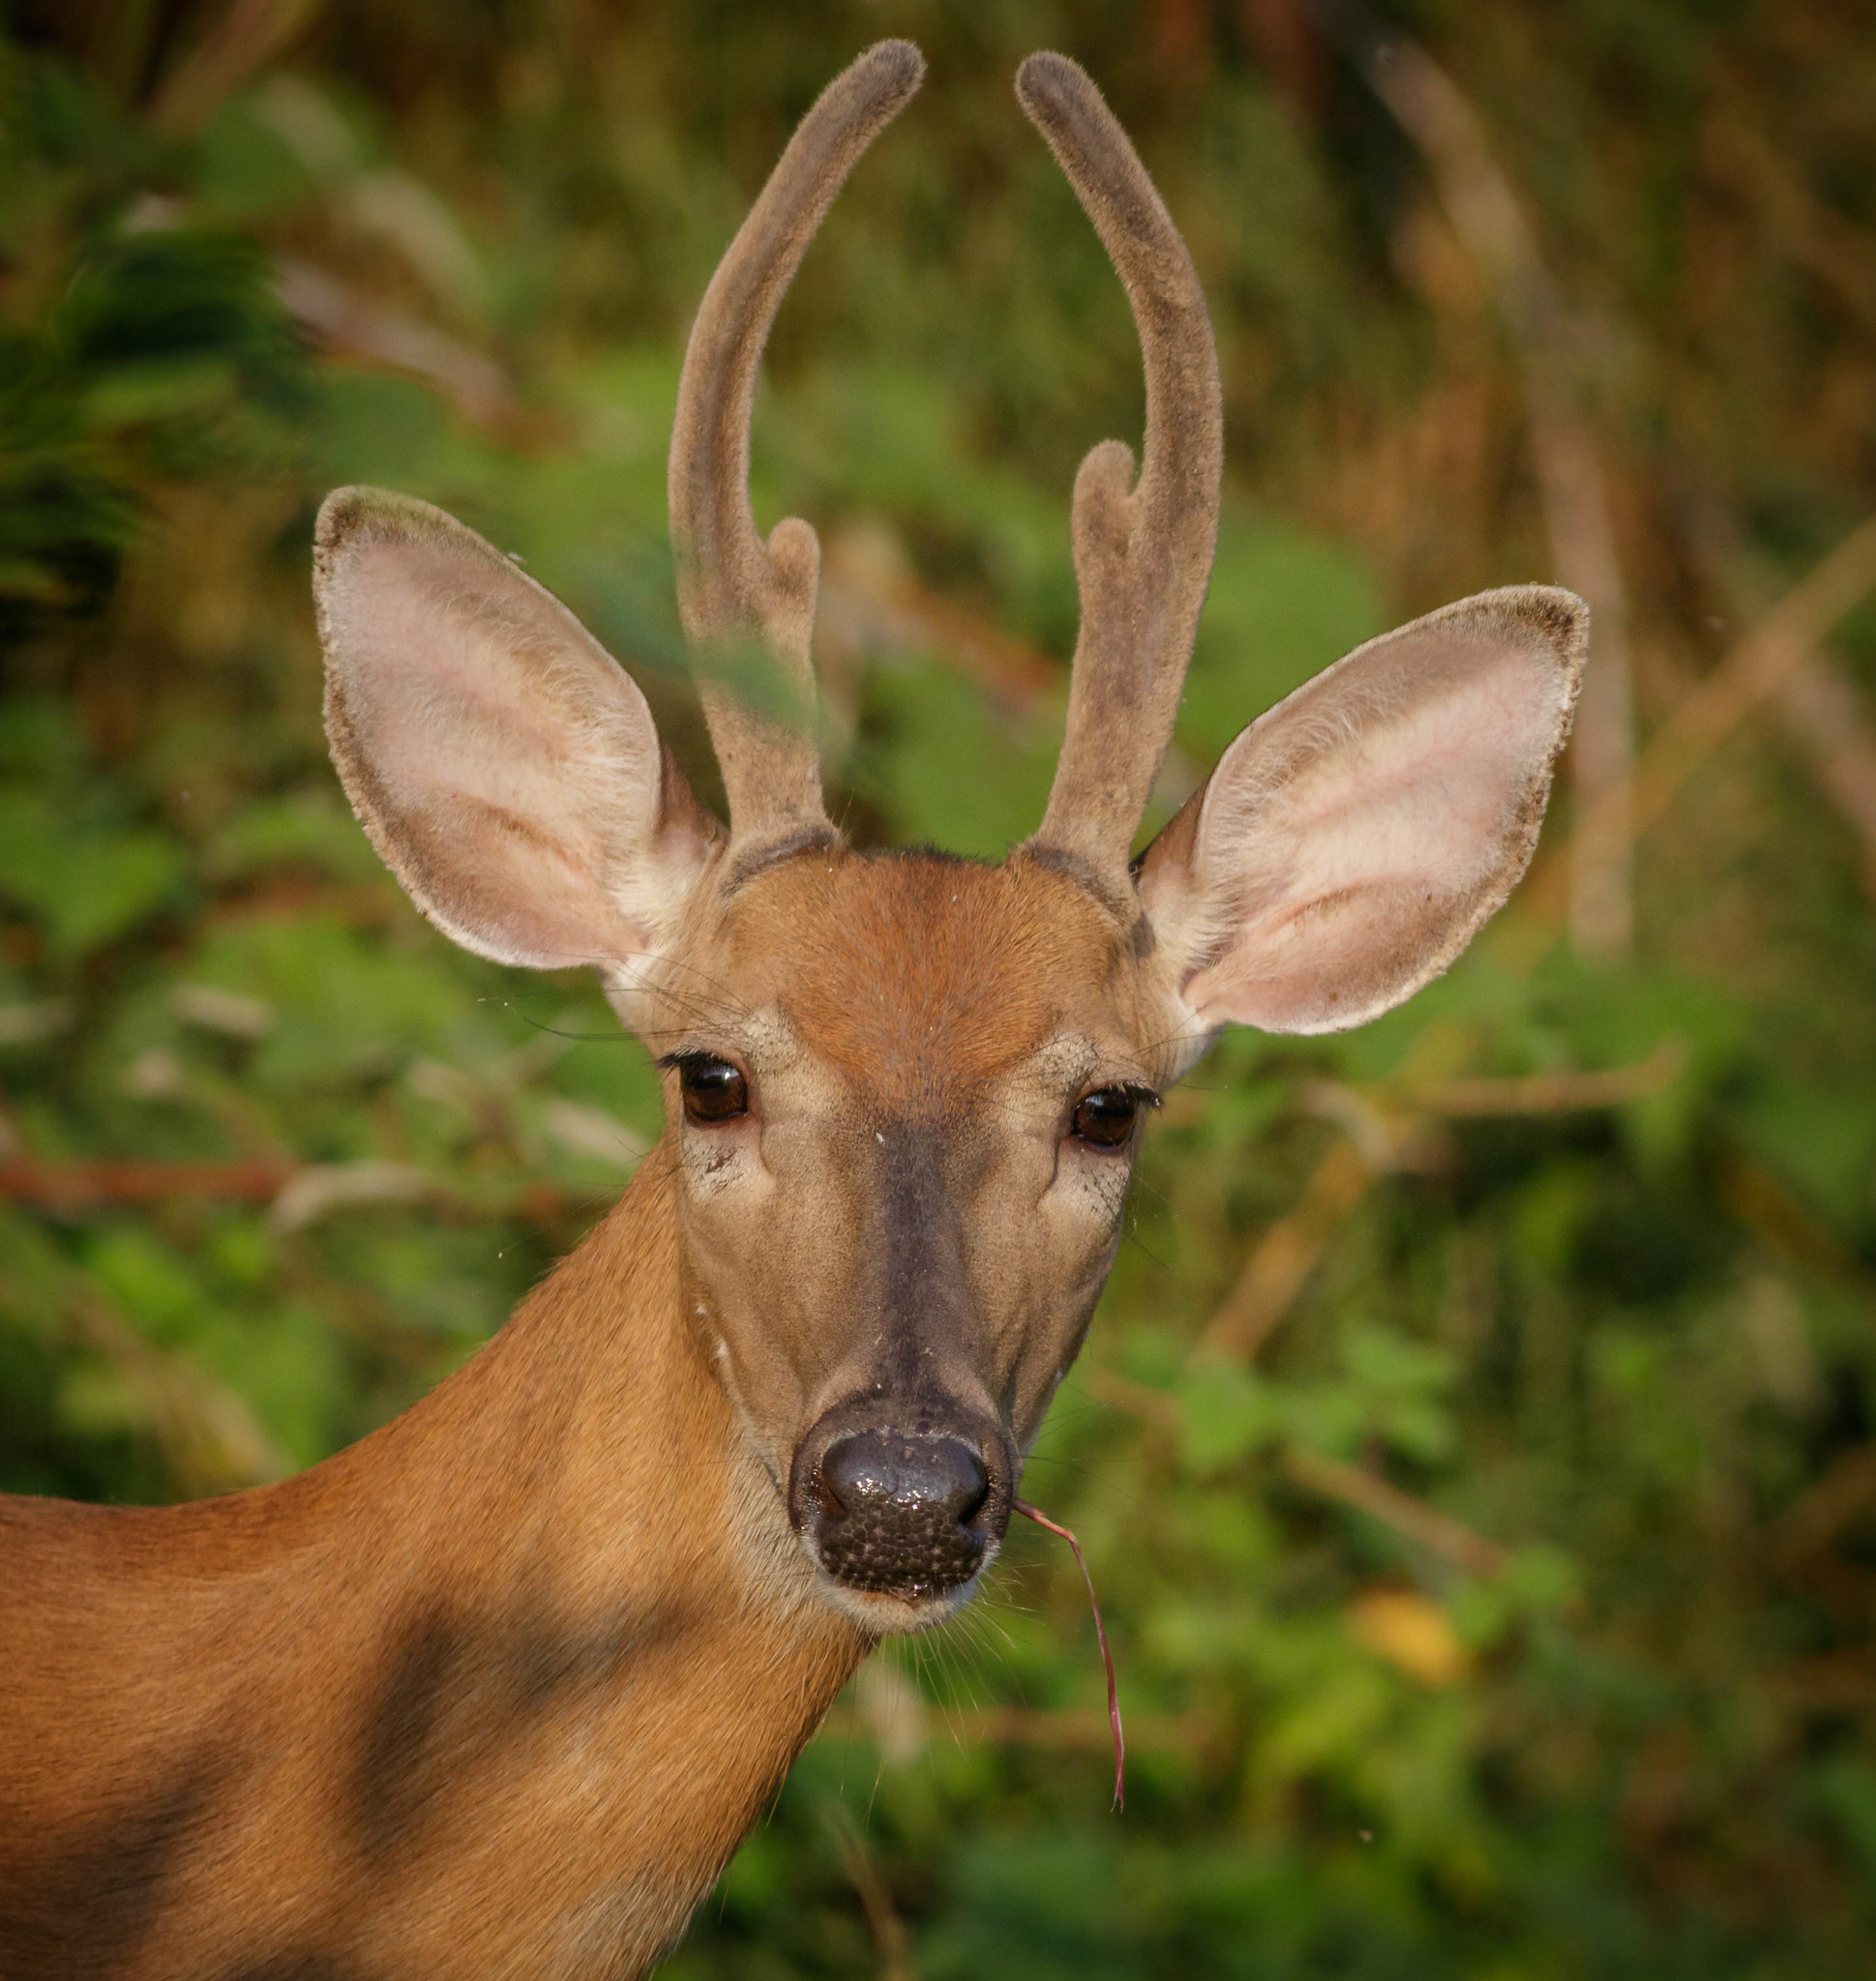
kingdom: Animalia
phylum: Chordata
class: Mammalia
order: Artiodactyla
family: Cervidae
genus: Odocoileus
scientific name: Odocoileus virginianus
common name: White-tailed deer
